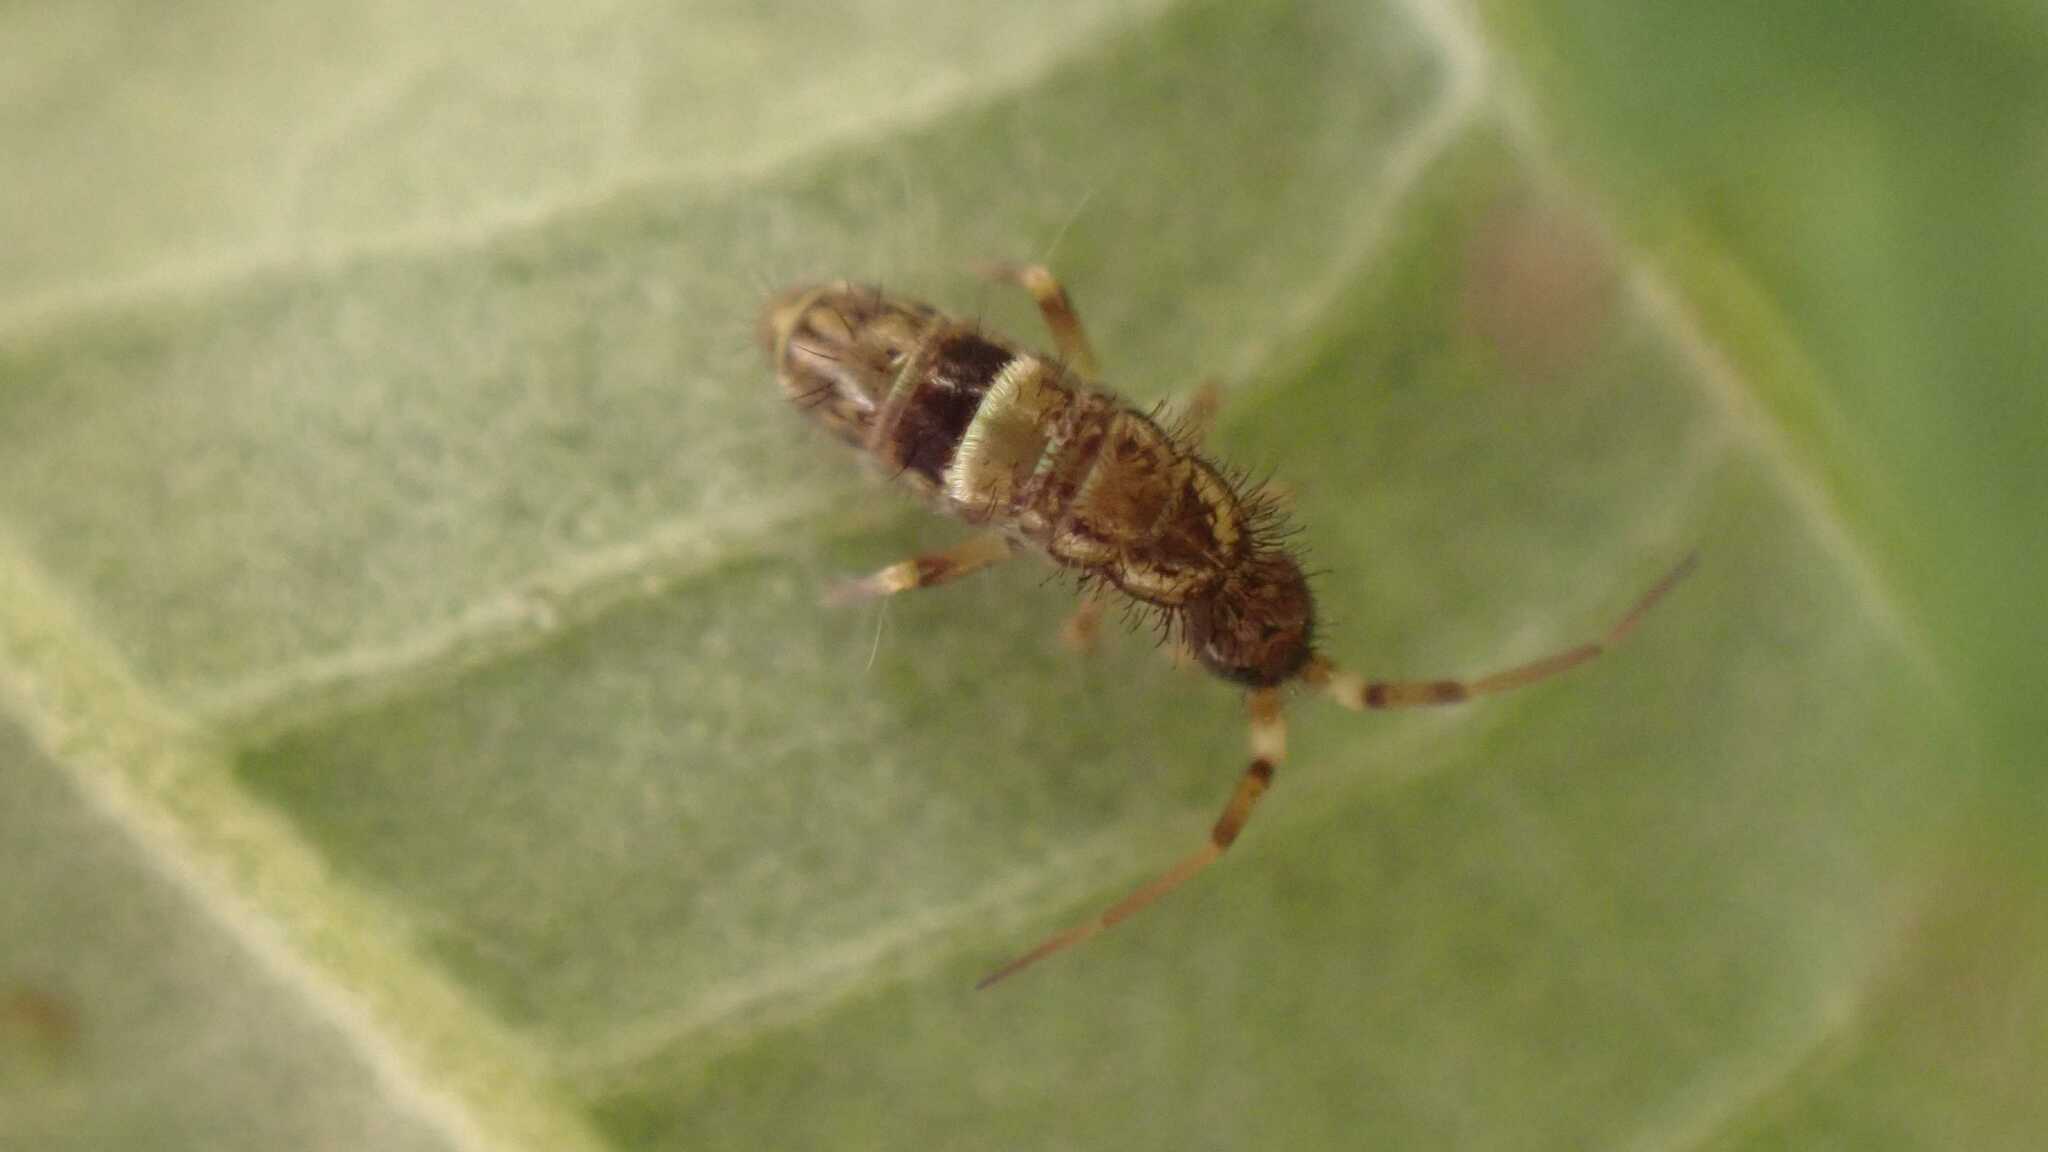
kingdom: Animalia
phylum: Arthropoda
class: Collembola
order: Entomobryomorpha
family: Orchesellidae
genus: Orchesella
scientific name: Orchesella cincta
